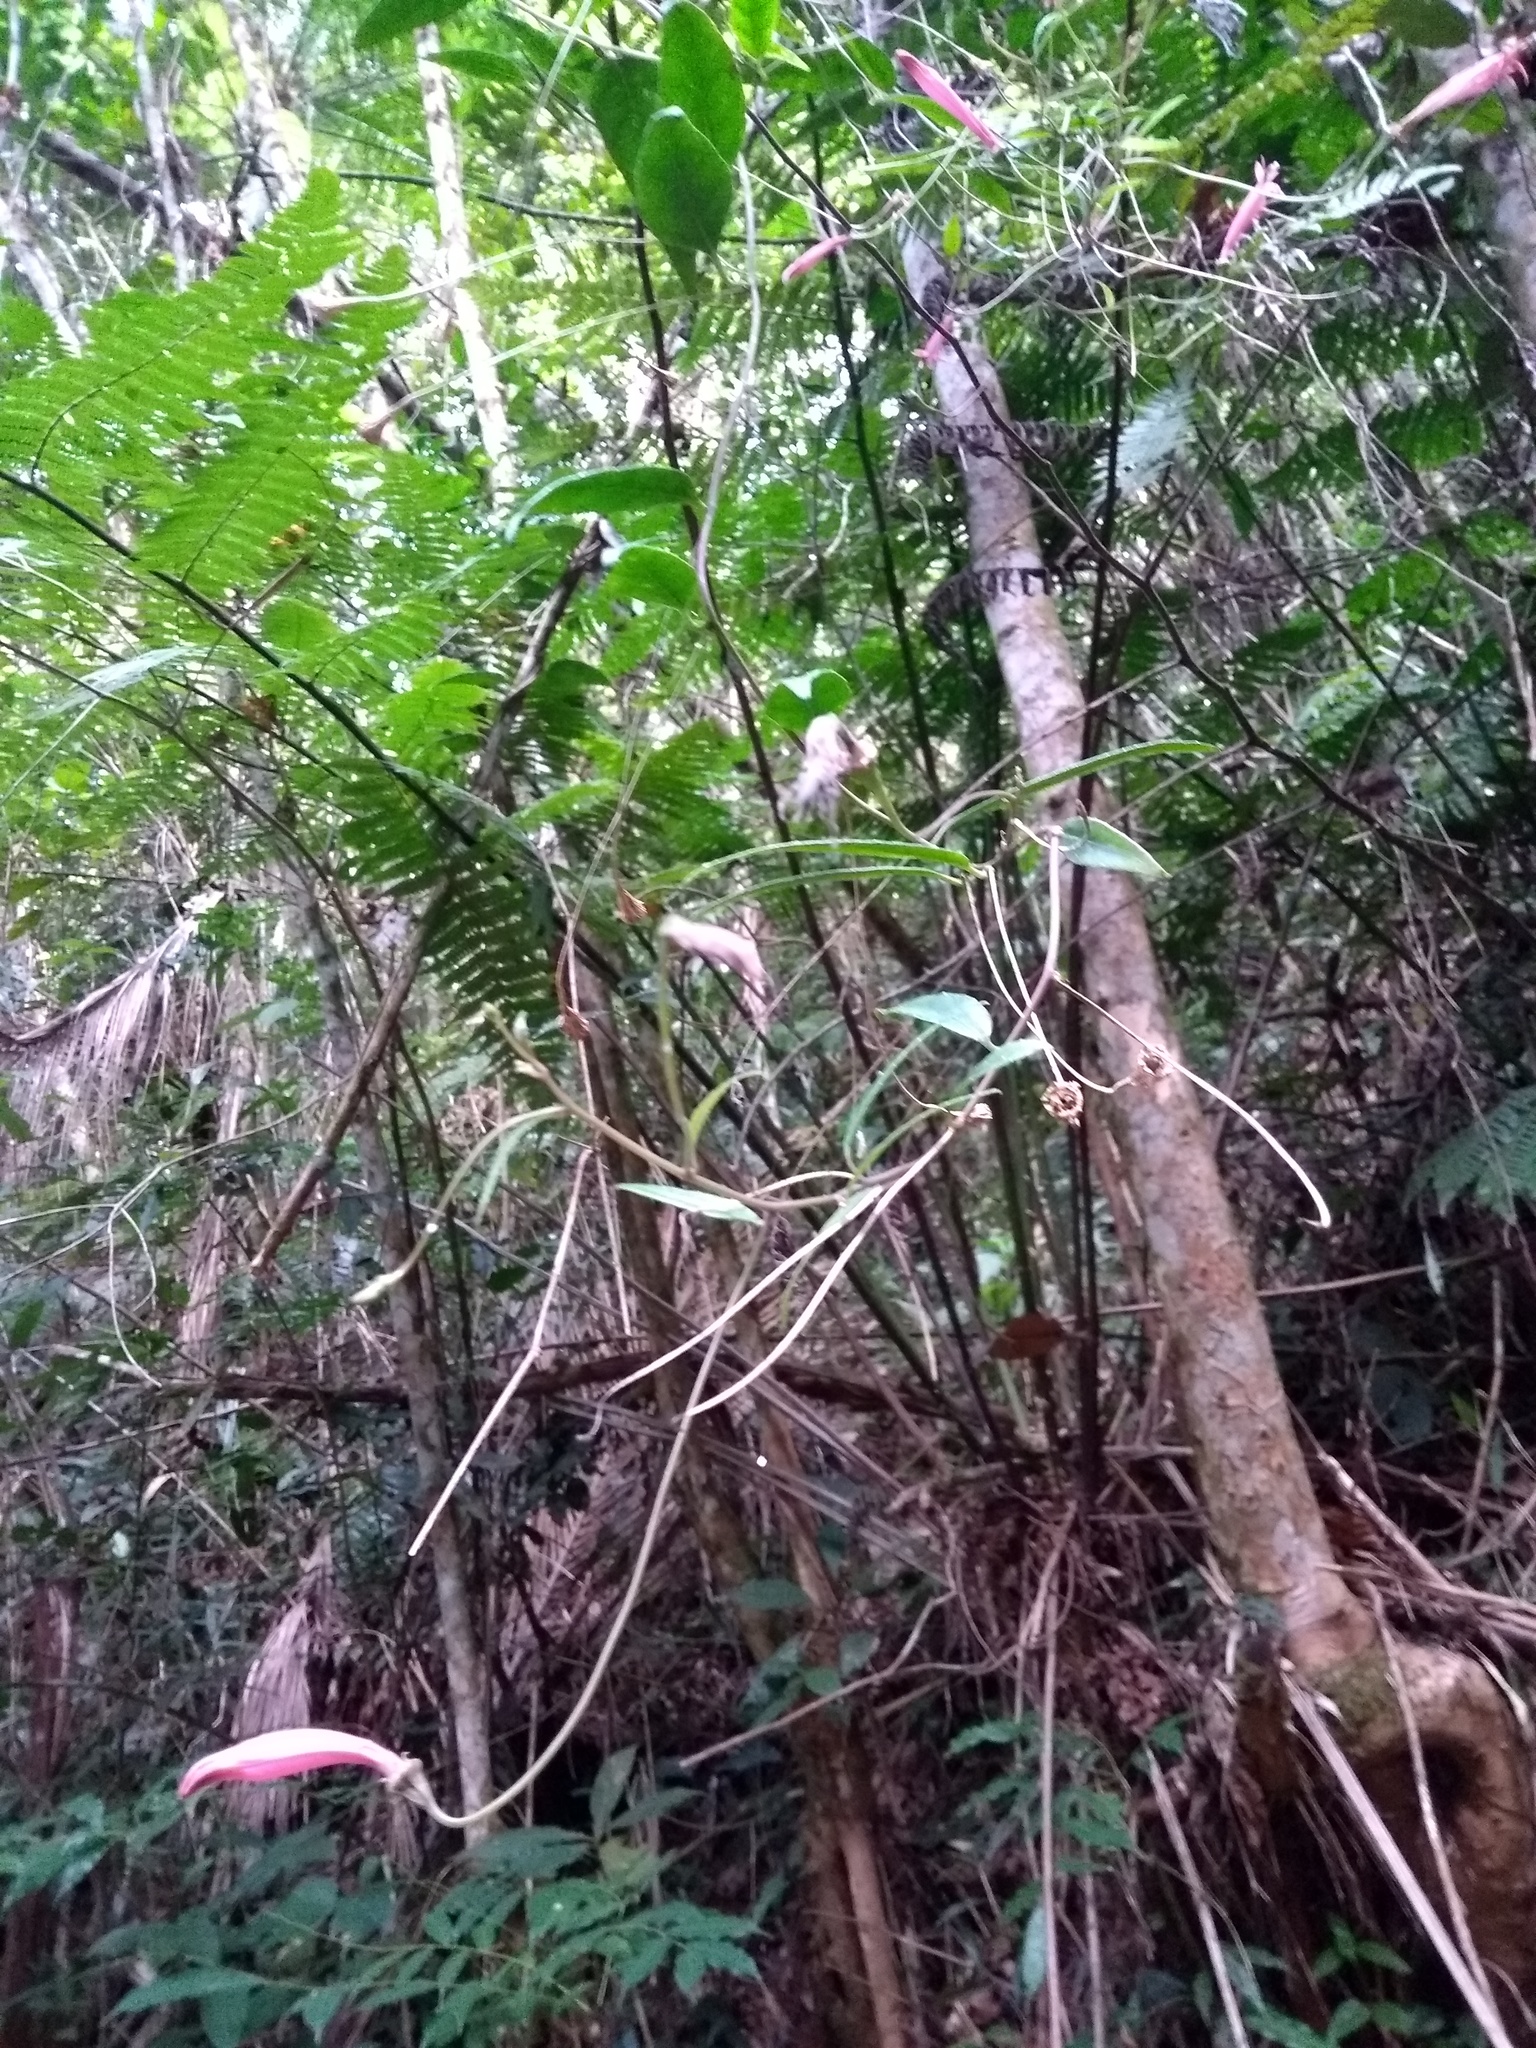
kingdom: Plantae
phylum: Tracheophyta
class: Magnoliopsida
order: Asterales
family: Campanulaceae
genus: Siphocampylus
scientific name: Siphocampylus convolvulaceus
